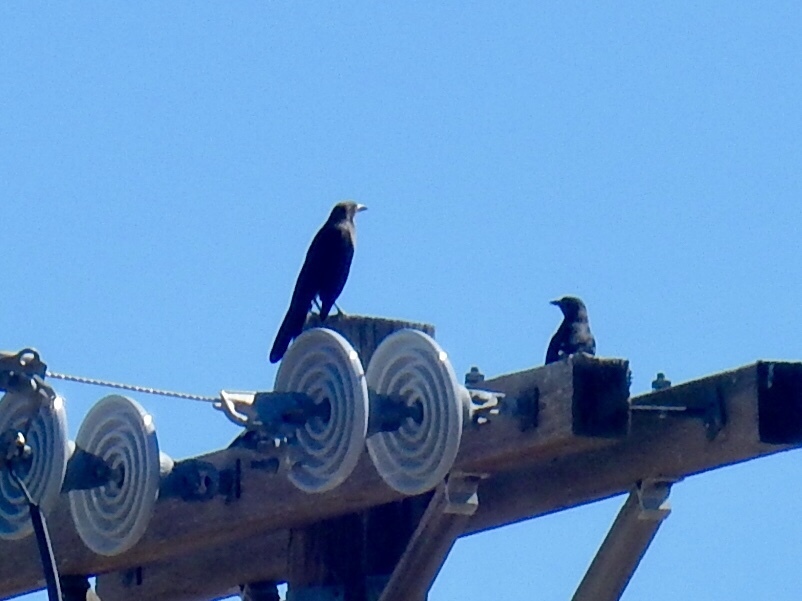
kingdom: Animalia
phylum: Chordata
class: Aves
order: Passeriformes
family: Icteridae
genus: Quiscalus
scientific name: Quiscalus mexicanus
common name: Great-tailed grackle
